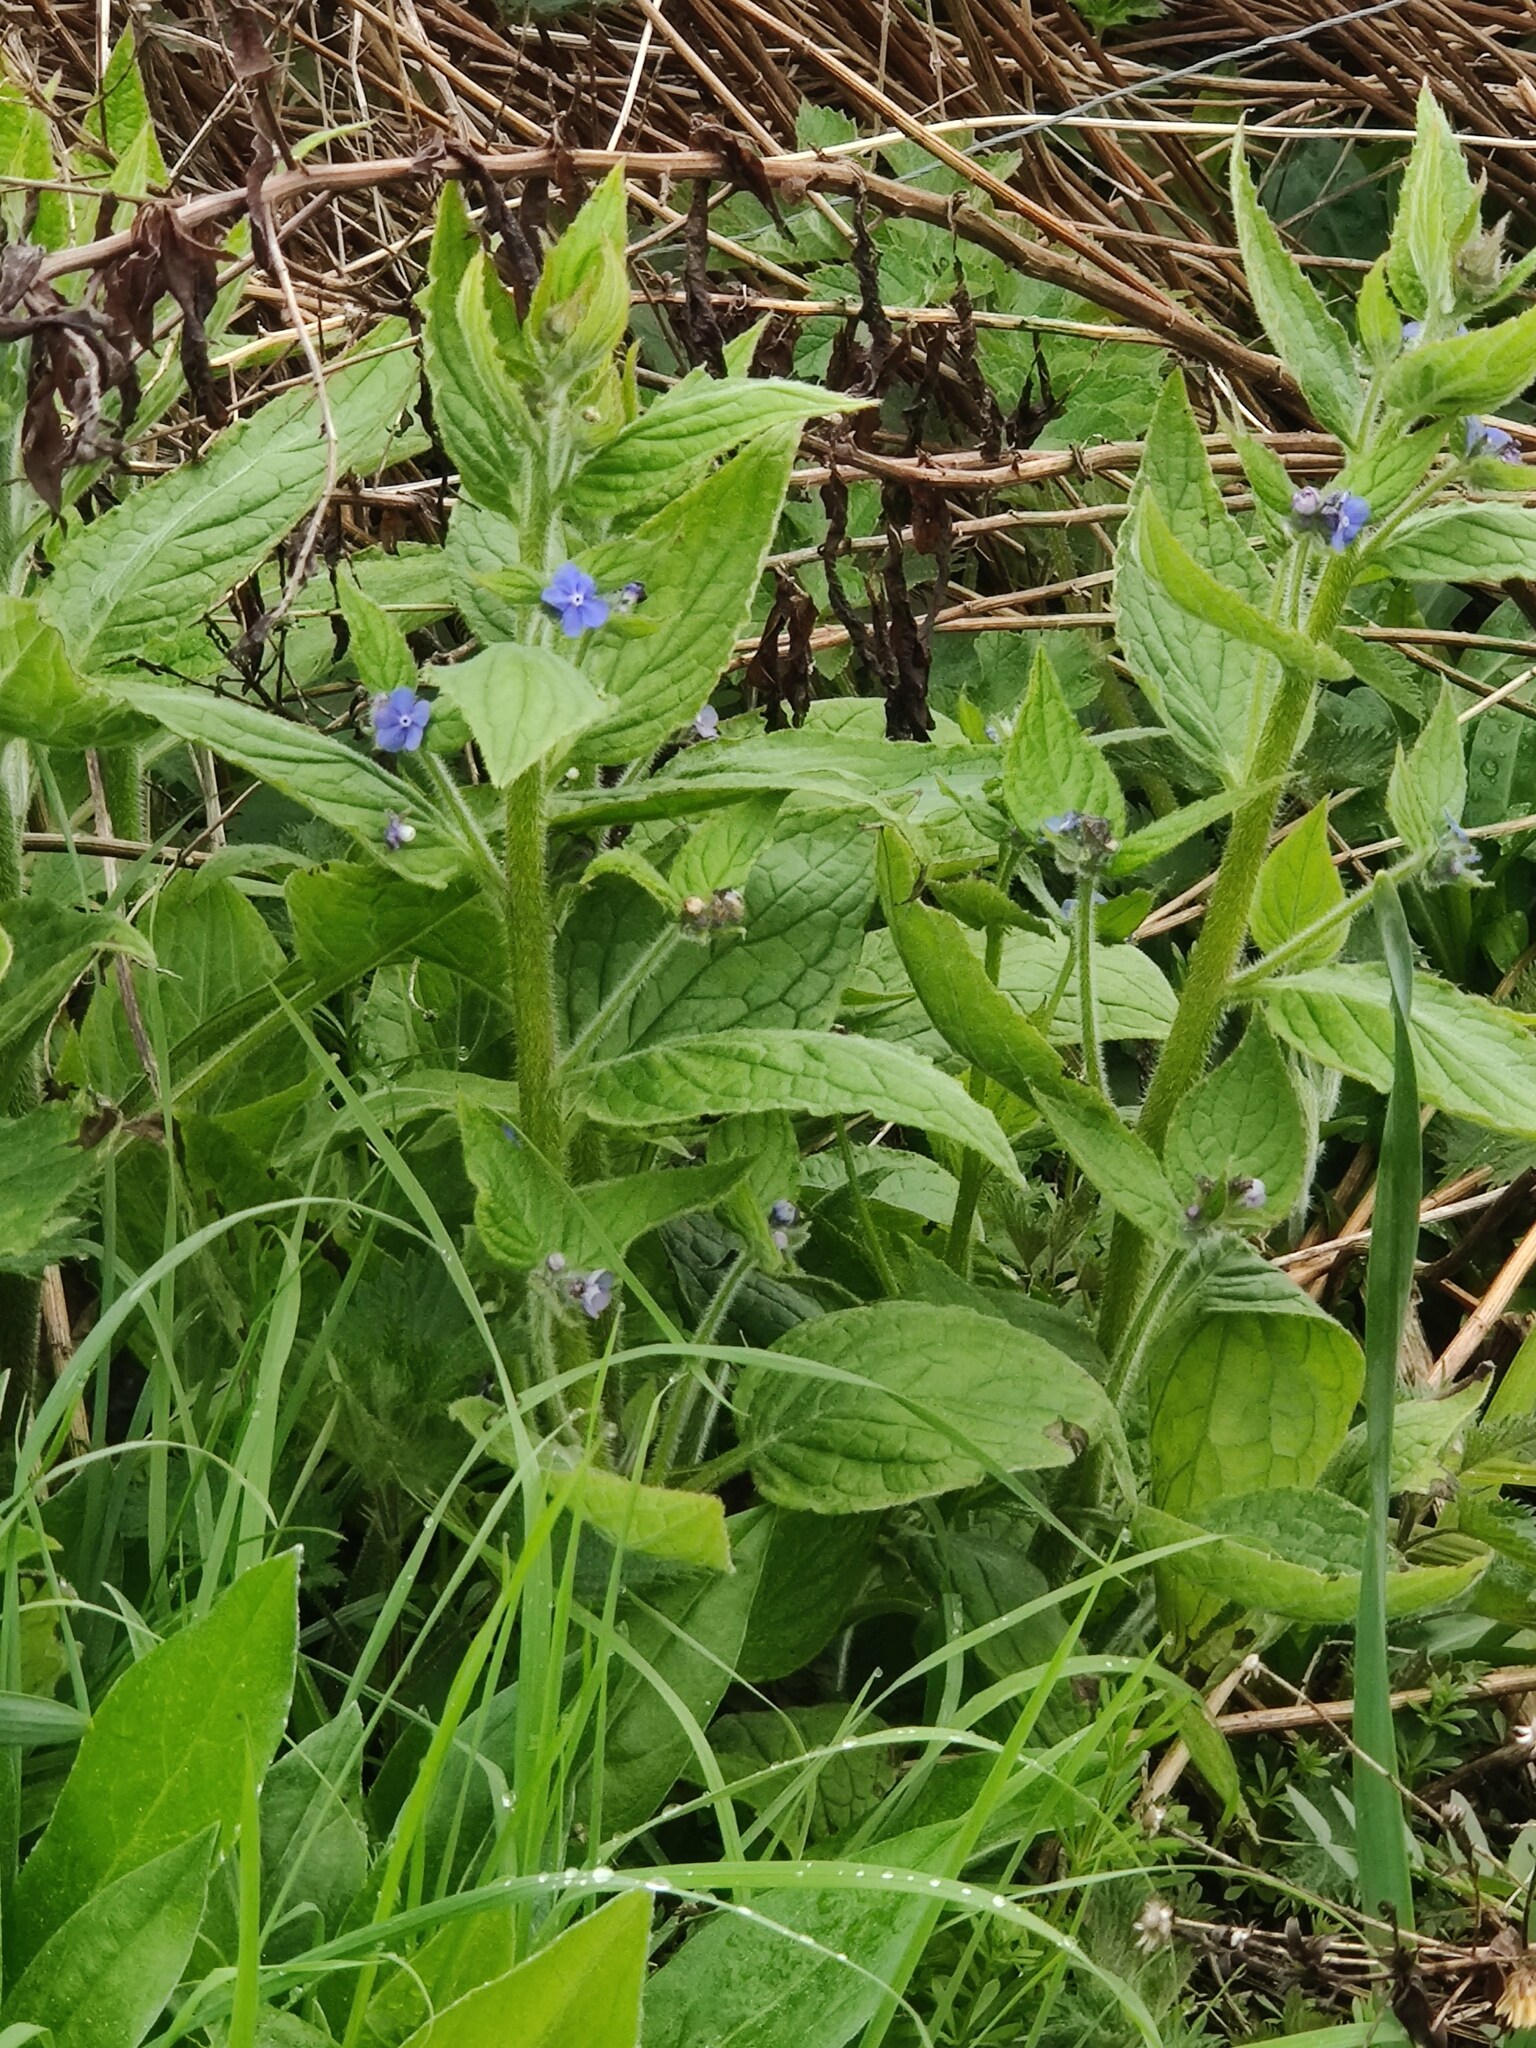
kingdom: Plantae
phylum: Tracheophyta
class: Magnoliopsida
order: Boraginales
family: Boraginaceae
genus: Pentaglottis
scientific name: Pentaglottis sempervirens
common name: Green alkanet
